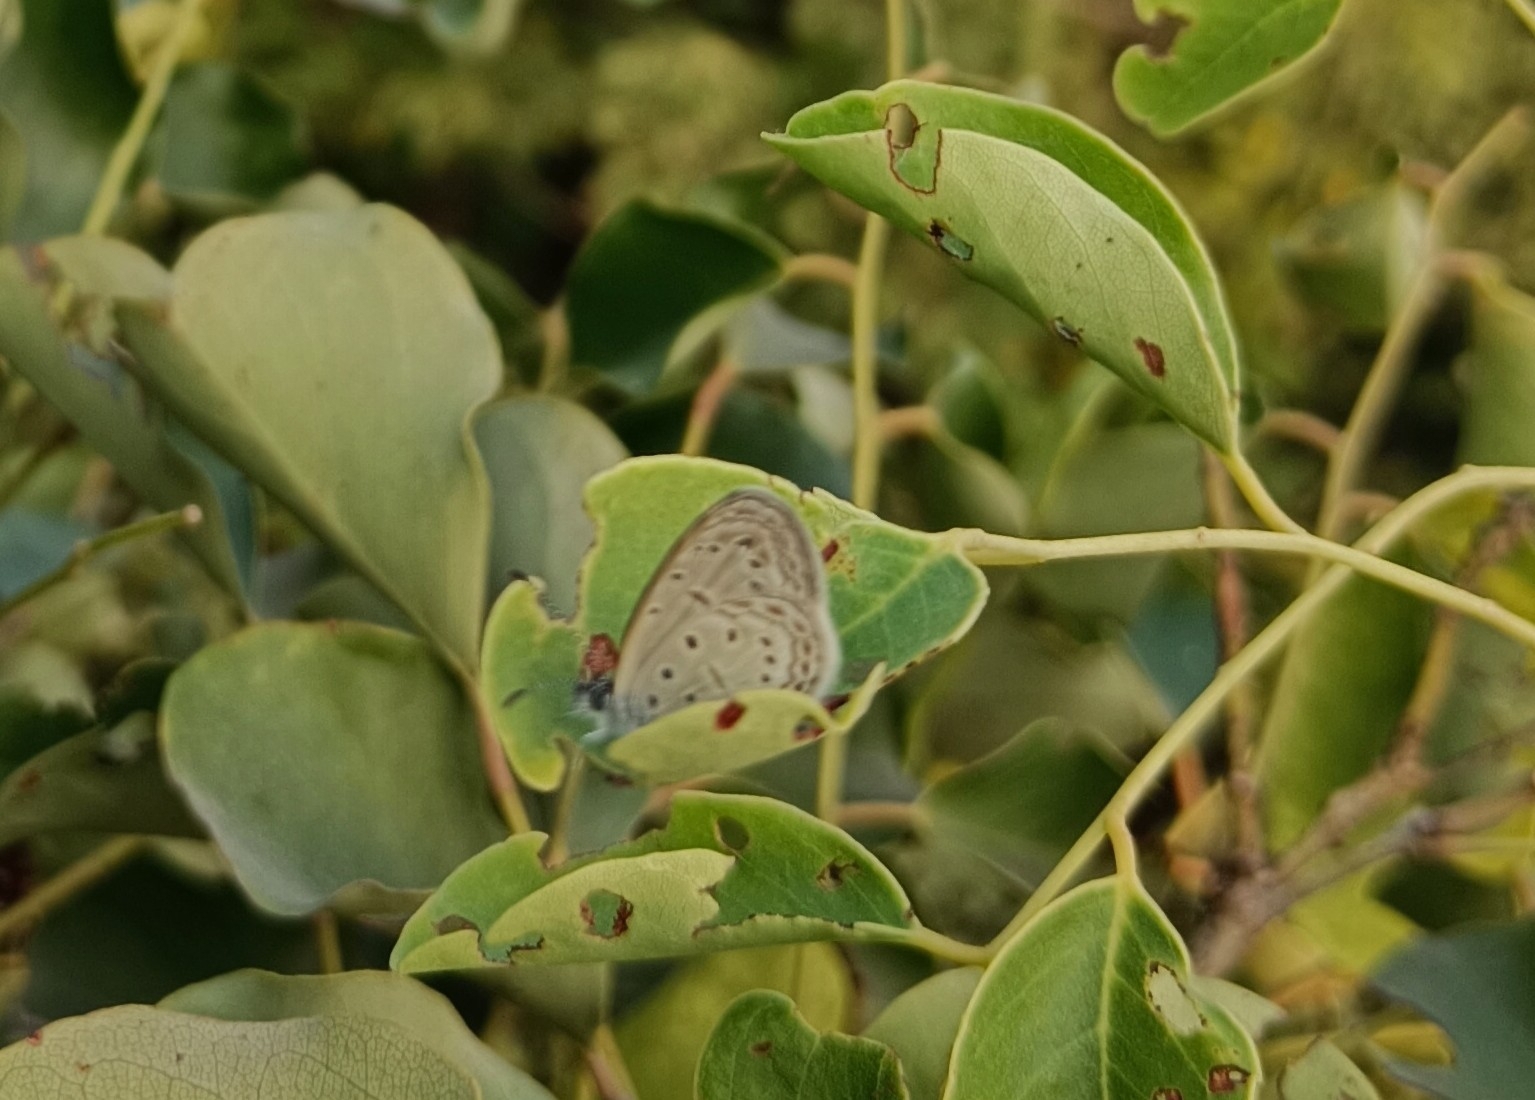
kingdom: Animalia
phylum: Arthropoda
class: Insecta
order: Lepidoptera
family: Lycaenidae
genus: Zizula
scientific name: Zizula hylax
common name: Gaika blue
